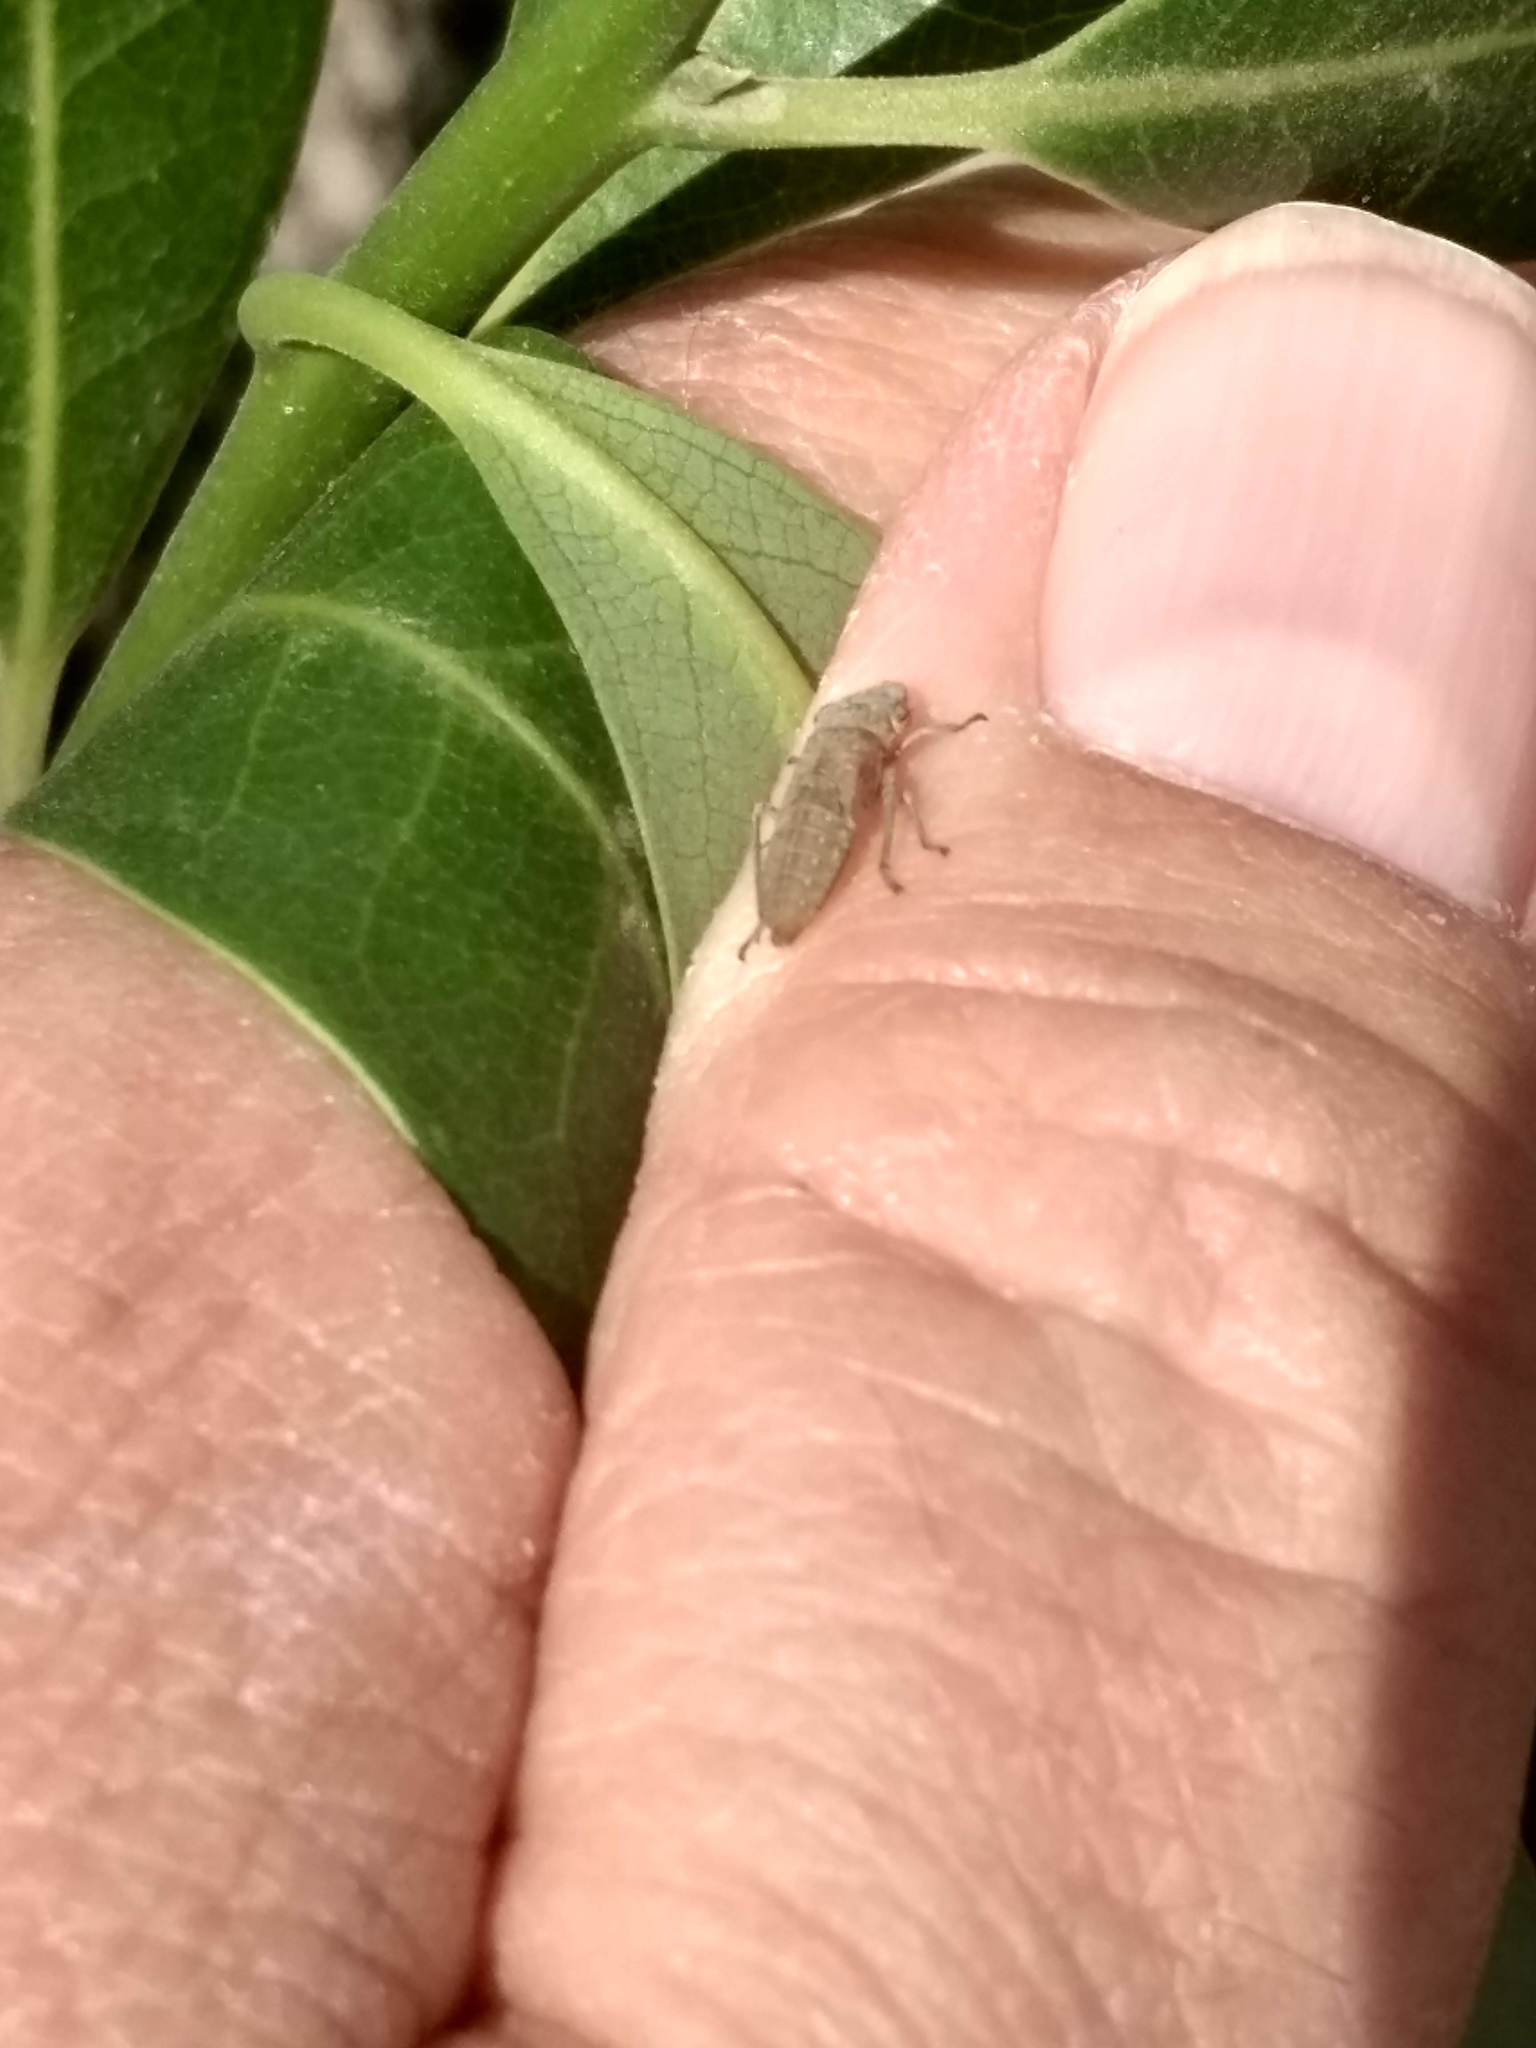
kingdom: Animalia
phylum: Arthropoda
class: Insecta
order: Hemiptera
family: Cicadellidae
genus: Homalodisca
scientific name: Homalodisca
